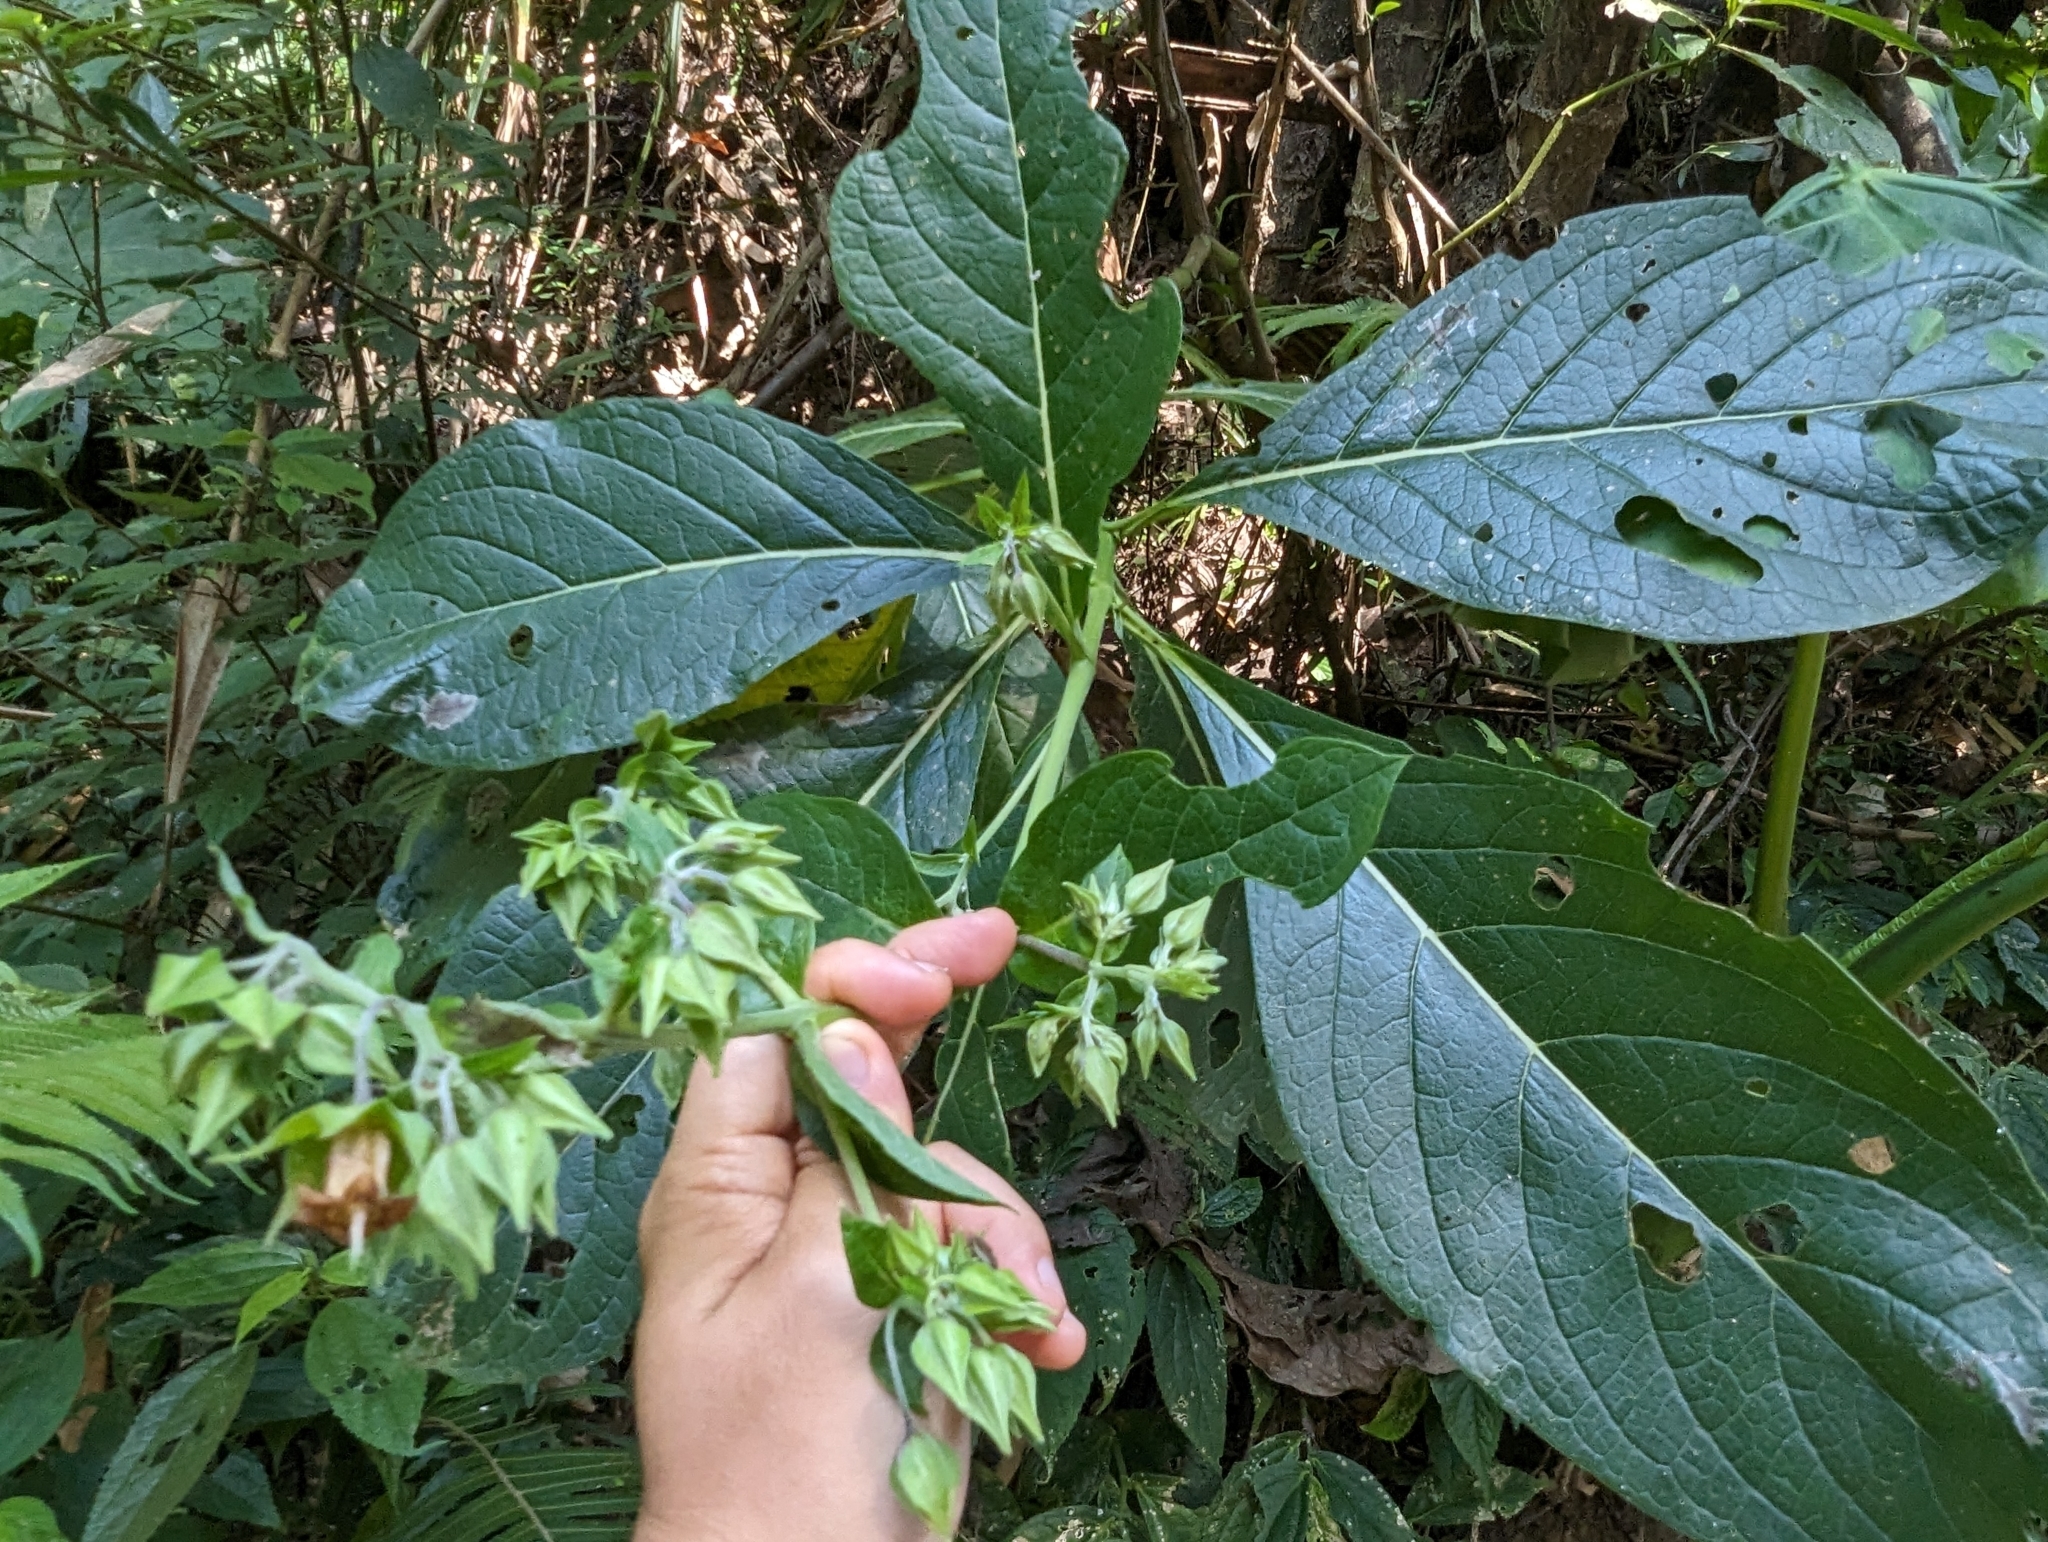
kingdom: Plantae
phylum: Tracheophyta
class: Magnoliopsida
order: Boraginales
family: Boraginaceae
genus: Trichodesma
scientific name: Trichodesma calycosum
